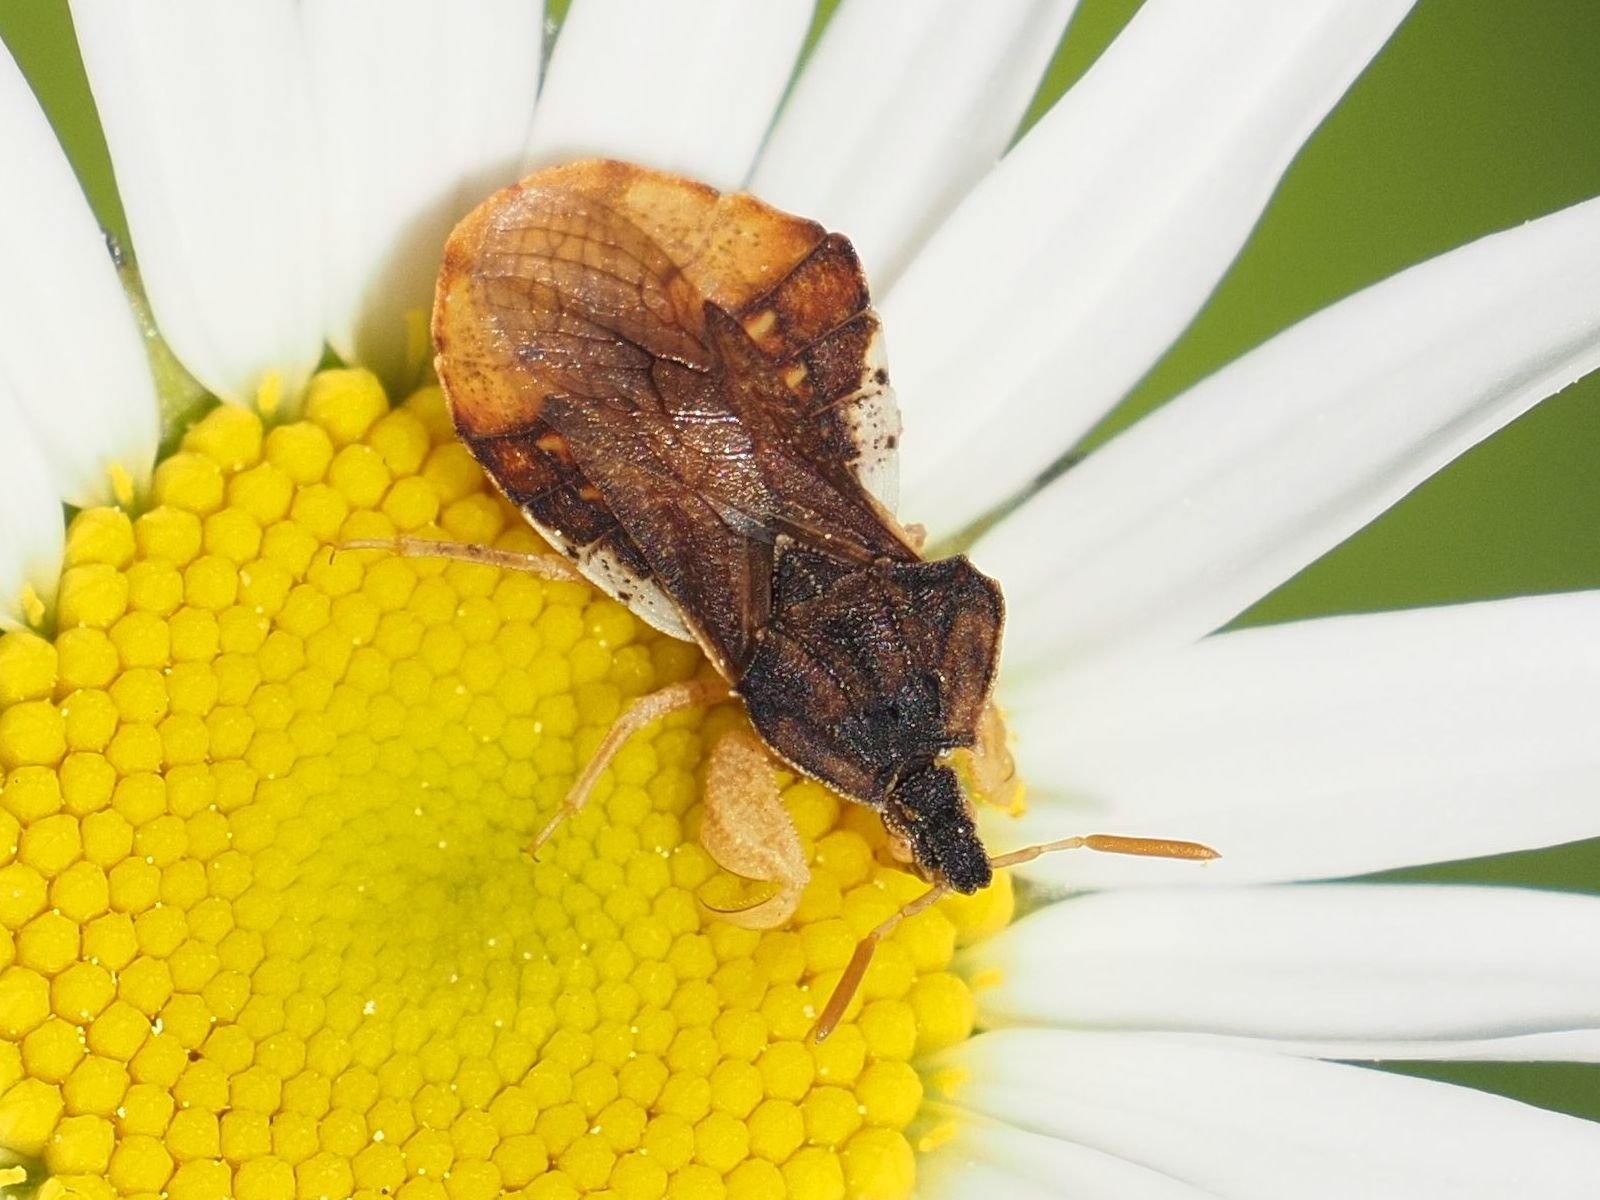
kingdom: Animalia
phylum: Arthropoda
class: Insecta
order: Hemiptera
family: Reduviidae
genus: Phymata
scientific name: Phymata crassipes
